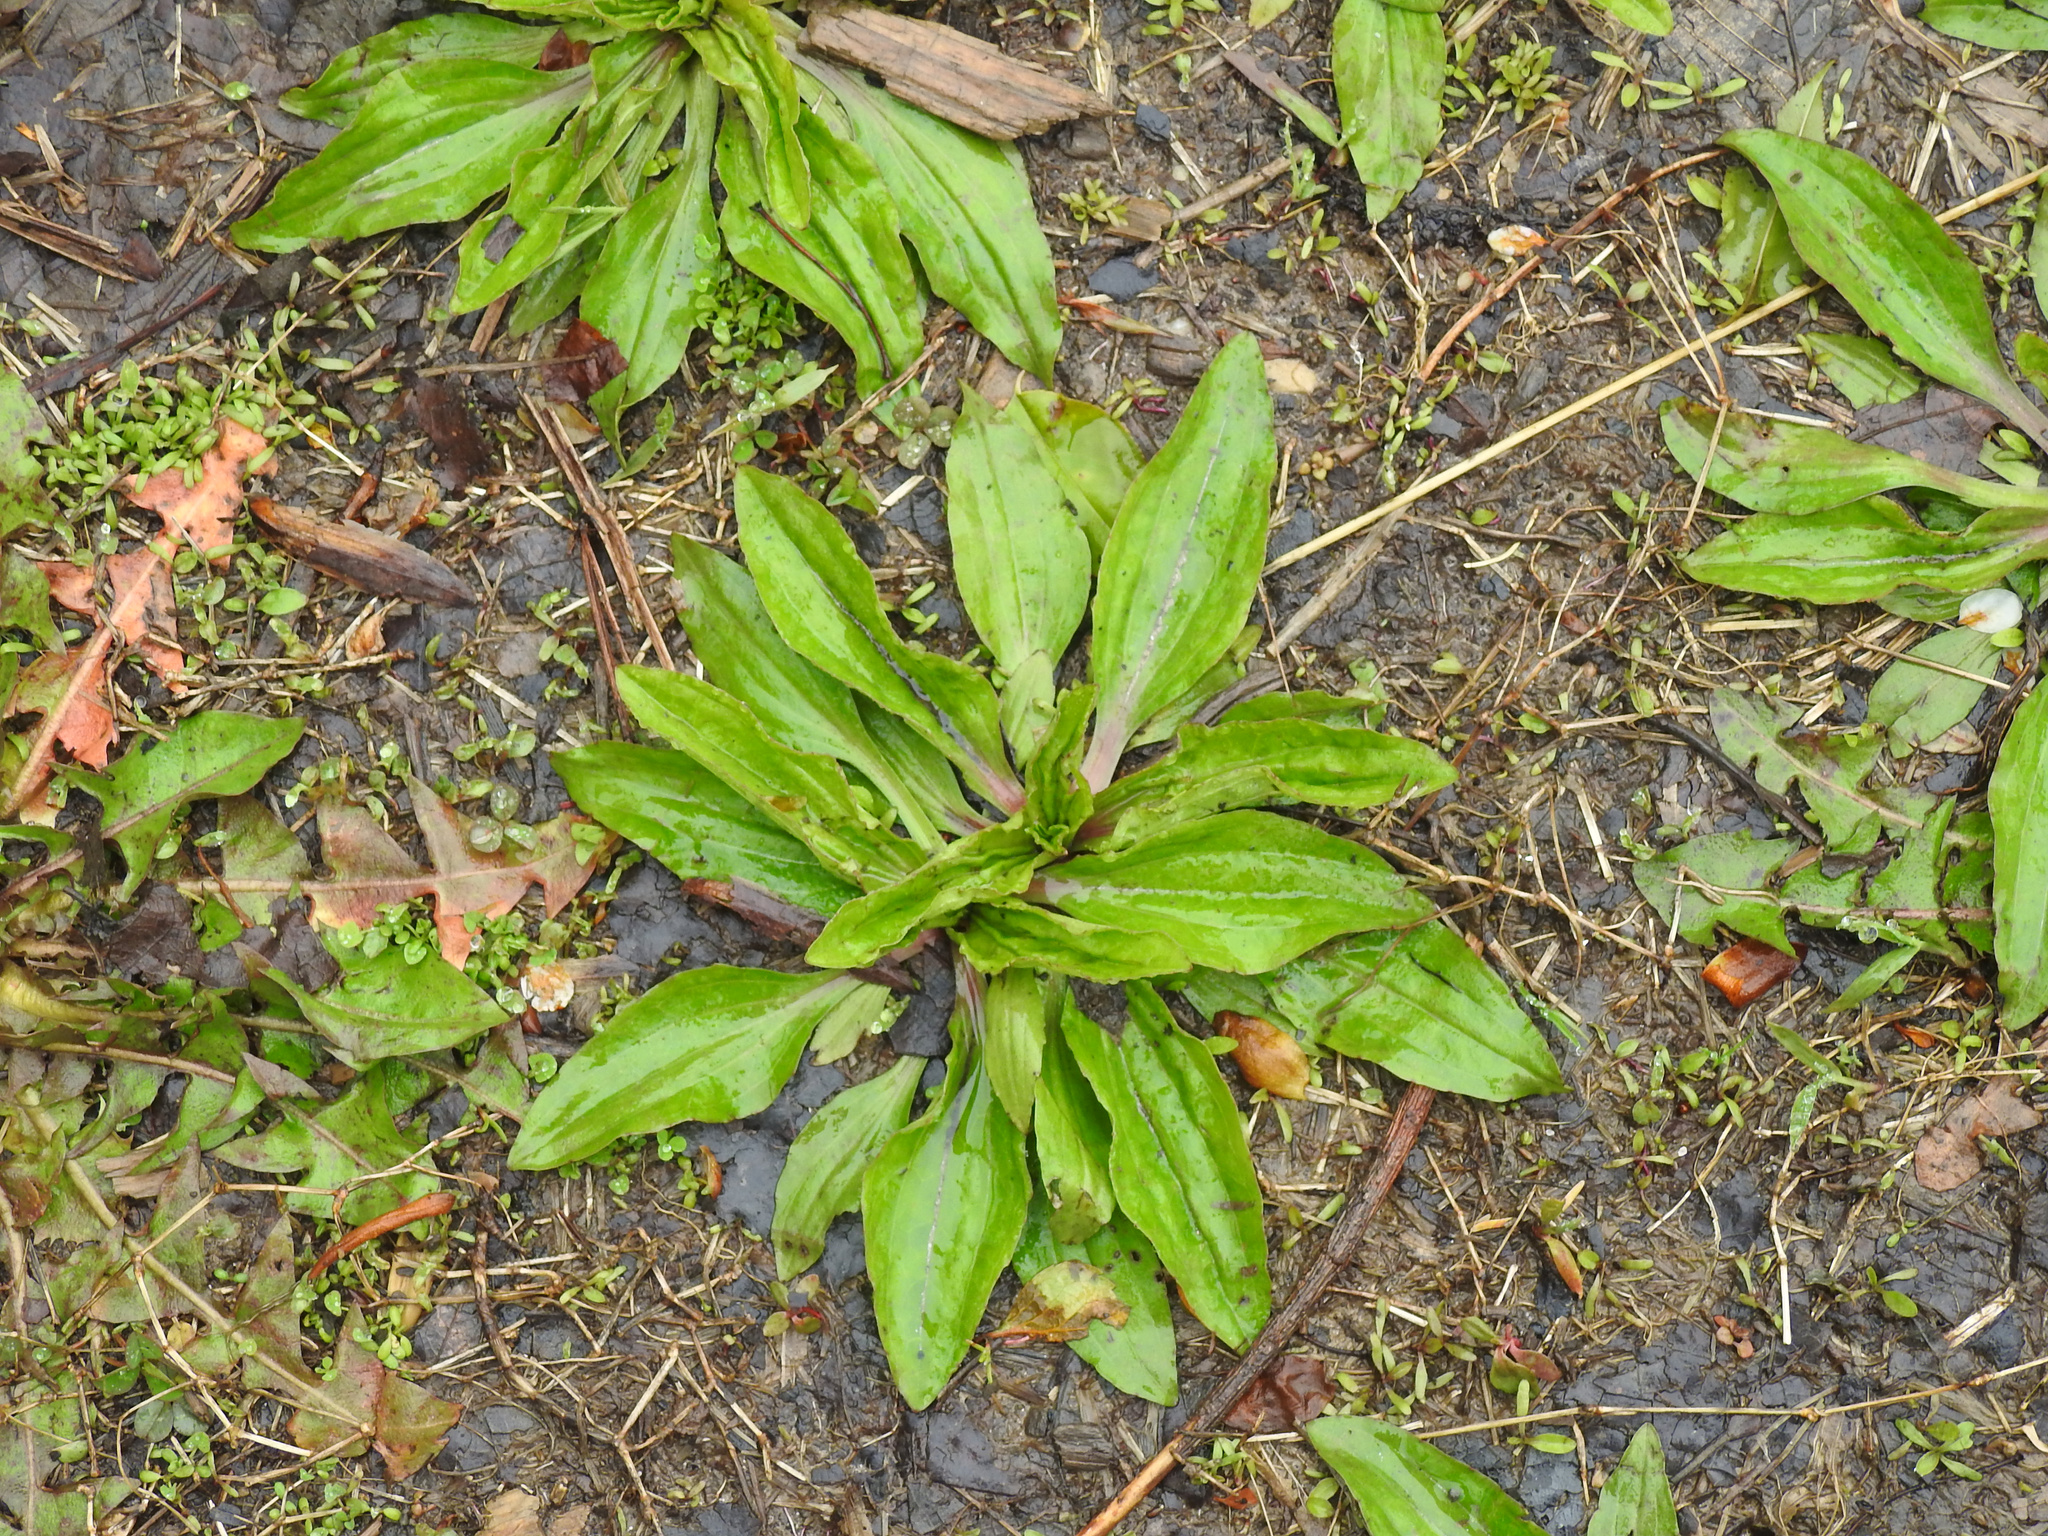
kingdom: Plantae
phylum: Tracheophyta
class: Magnoliopsida
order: Lamiales
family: Plantaginaceae
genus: Plantago
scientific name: Plantago rugelii
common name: American plantain
